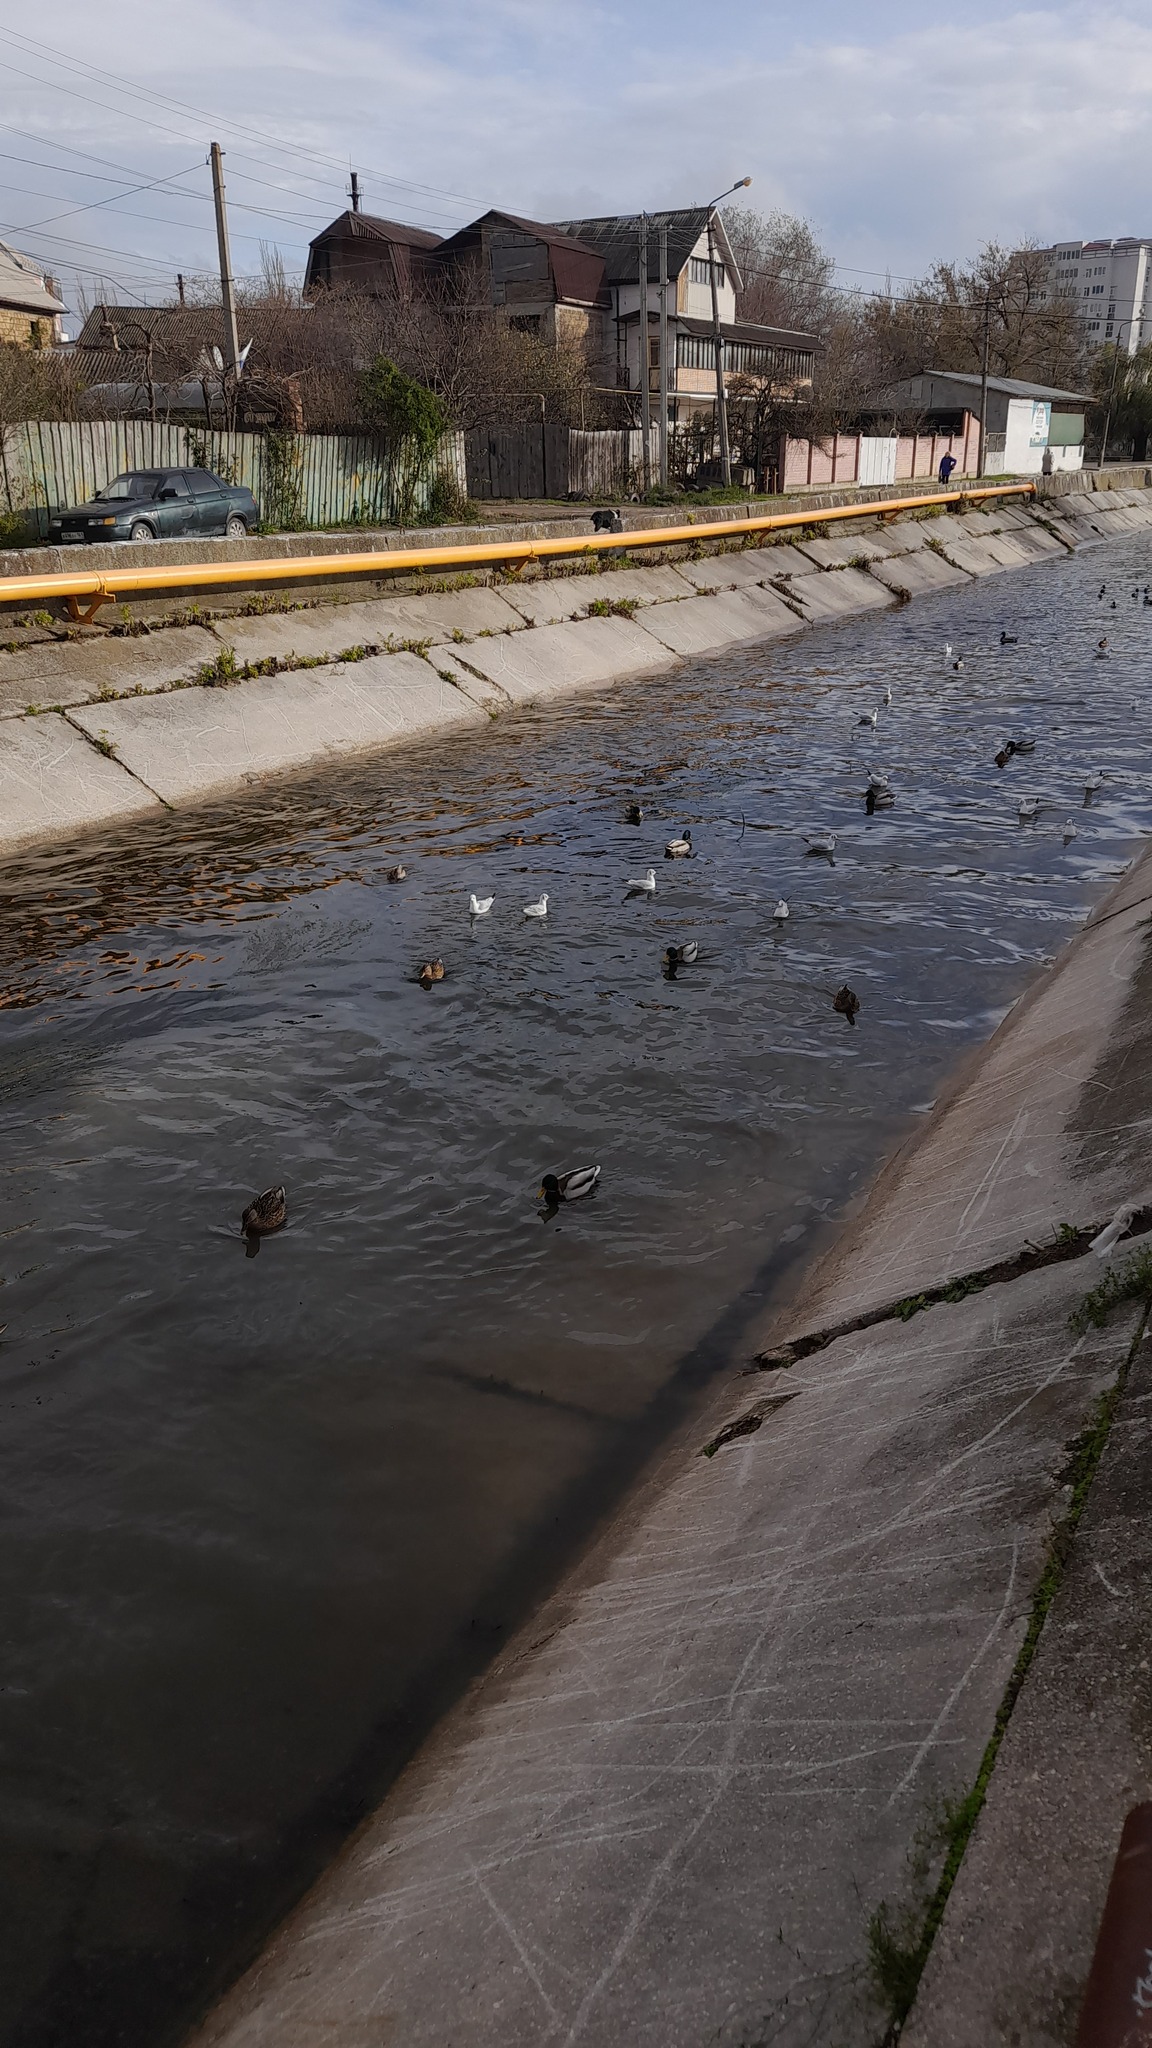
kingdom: Animalia
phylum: Chordata
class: Aves
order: Charadriiformes
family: Laridae
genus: Chroicocephalus
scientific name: Chroicocephalus ridibundus
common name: Black-headed gull
